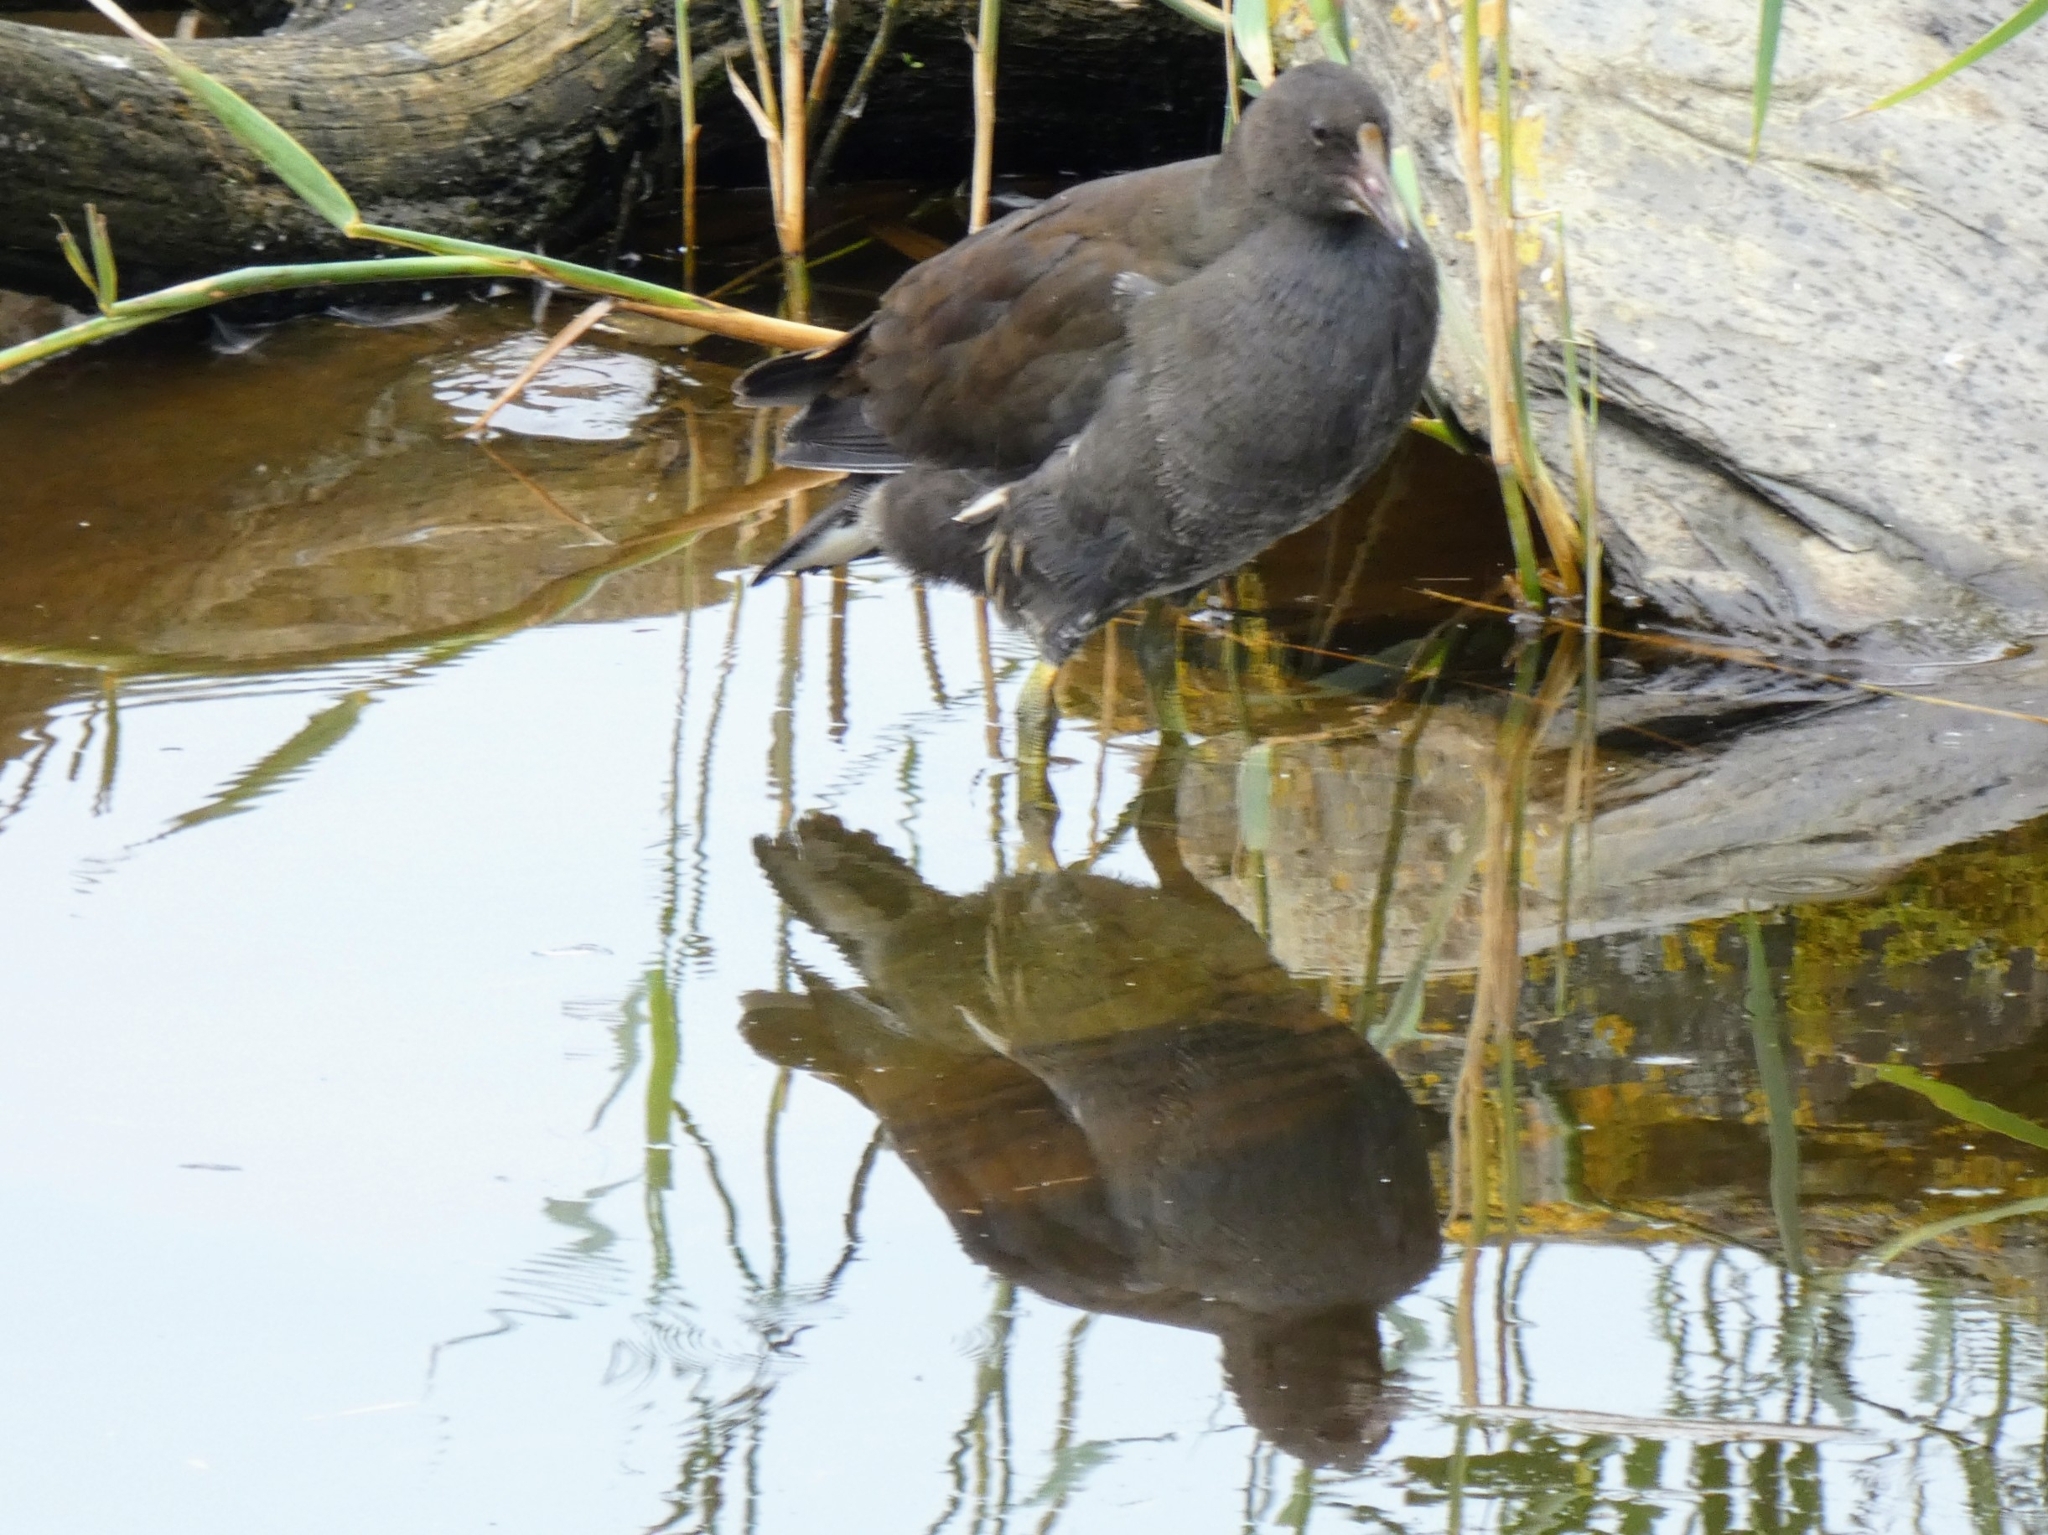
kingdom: Animalia
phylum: Chordata
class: Aves
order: Gruiformes
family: Rallidae
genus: Gallinula
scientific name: Gallinula chloropus
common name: Common moorhen
